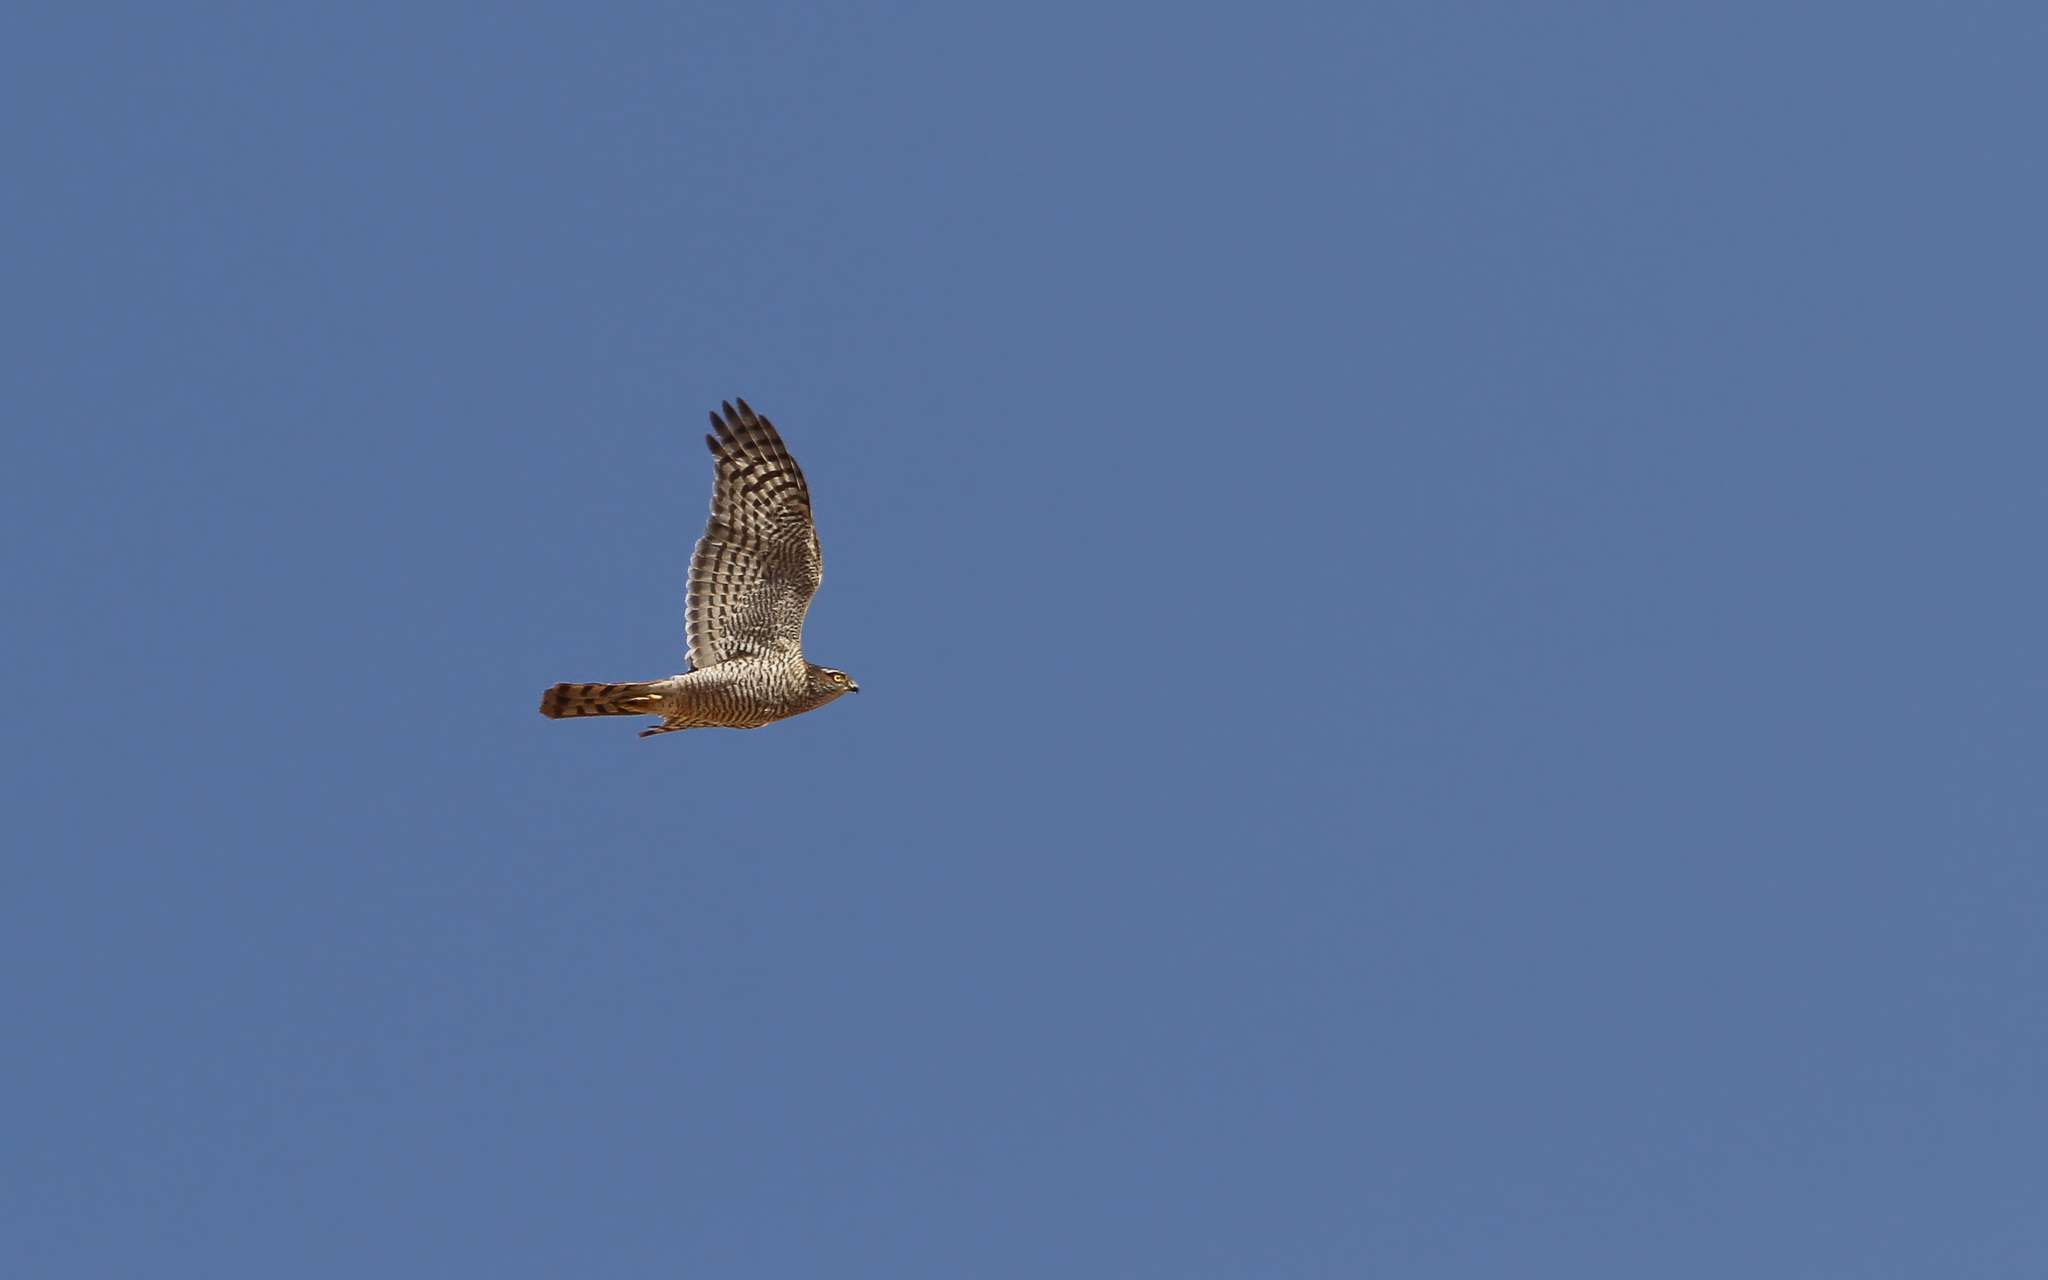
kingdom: Animalia
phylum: Chordata
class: Aves
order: Accipitriformes
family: Accipitridae
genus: Accipiter
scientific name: Accipiter nisus
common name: Eurasian sparrowhawk
